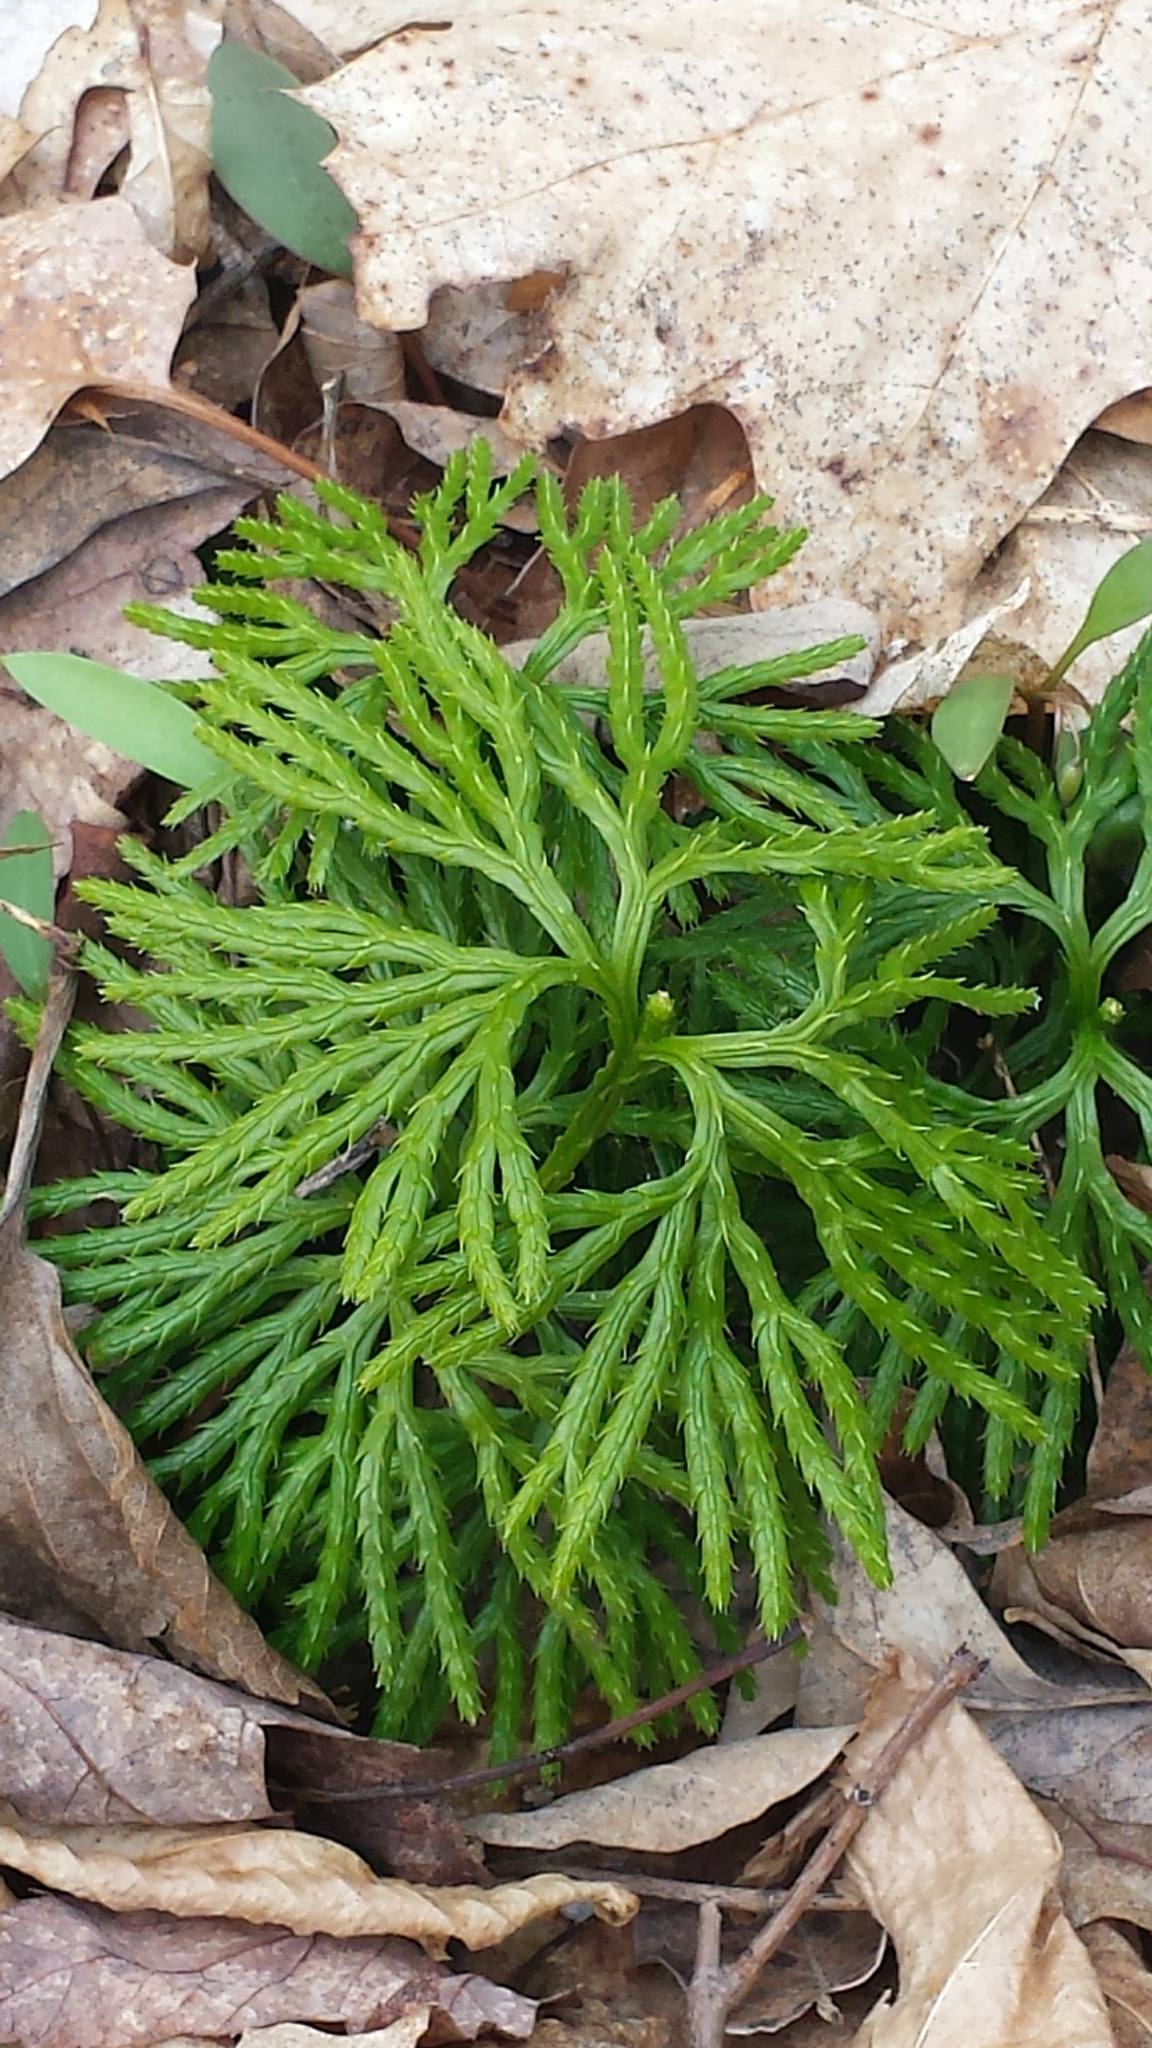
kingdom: Plantae
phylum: Tracheophyta
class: Lycopodiopsida
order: Lycopodiales
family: Lycopodiaceae
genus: Diphasiastrum
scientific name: Diphasiastrum digitatum
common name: Southern running-pine
